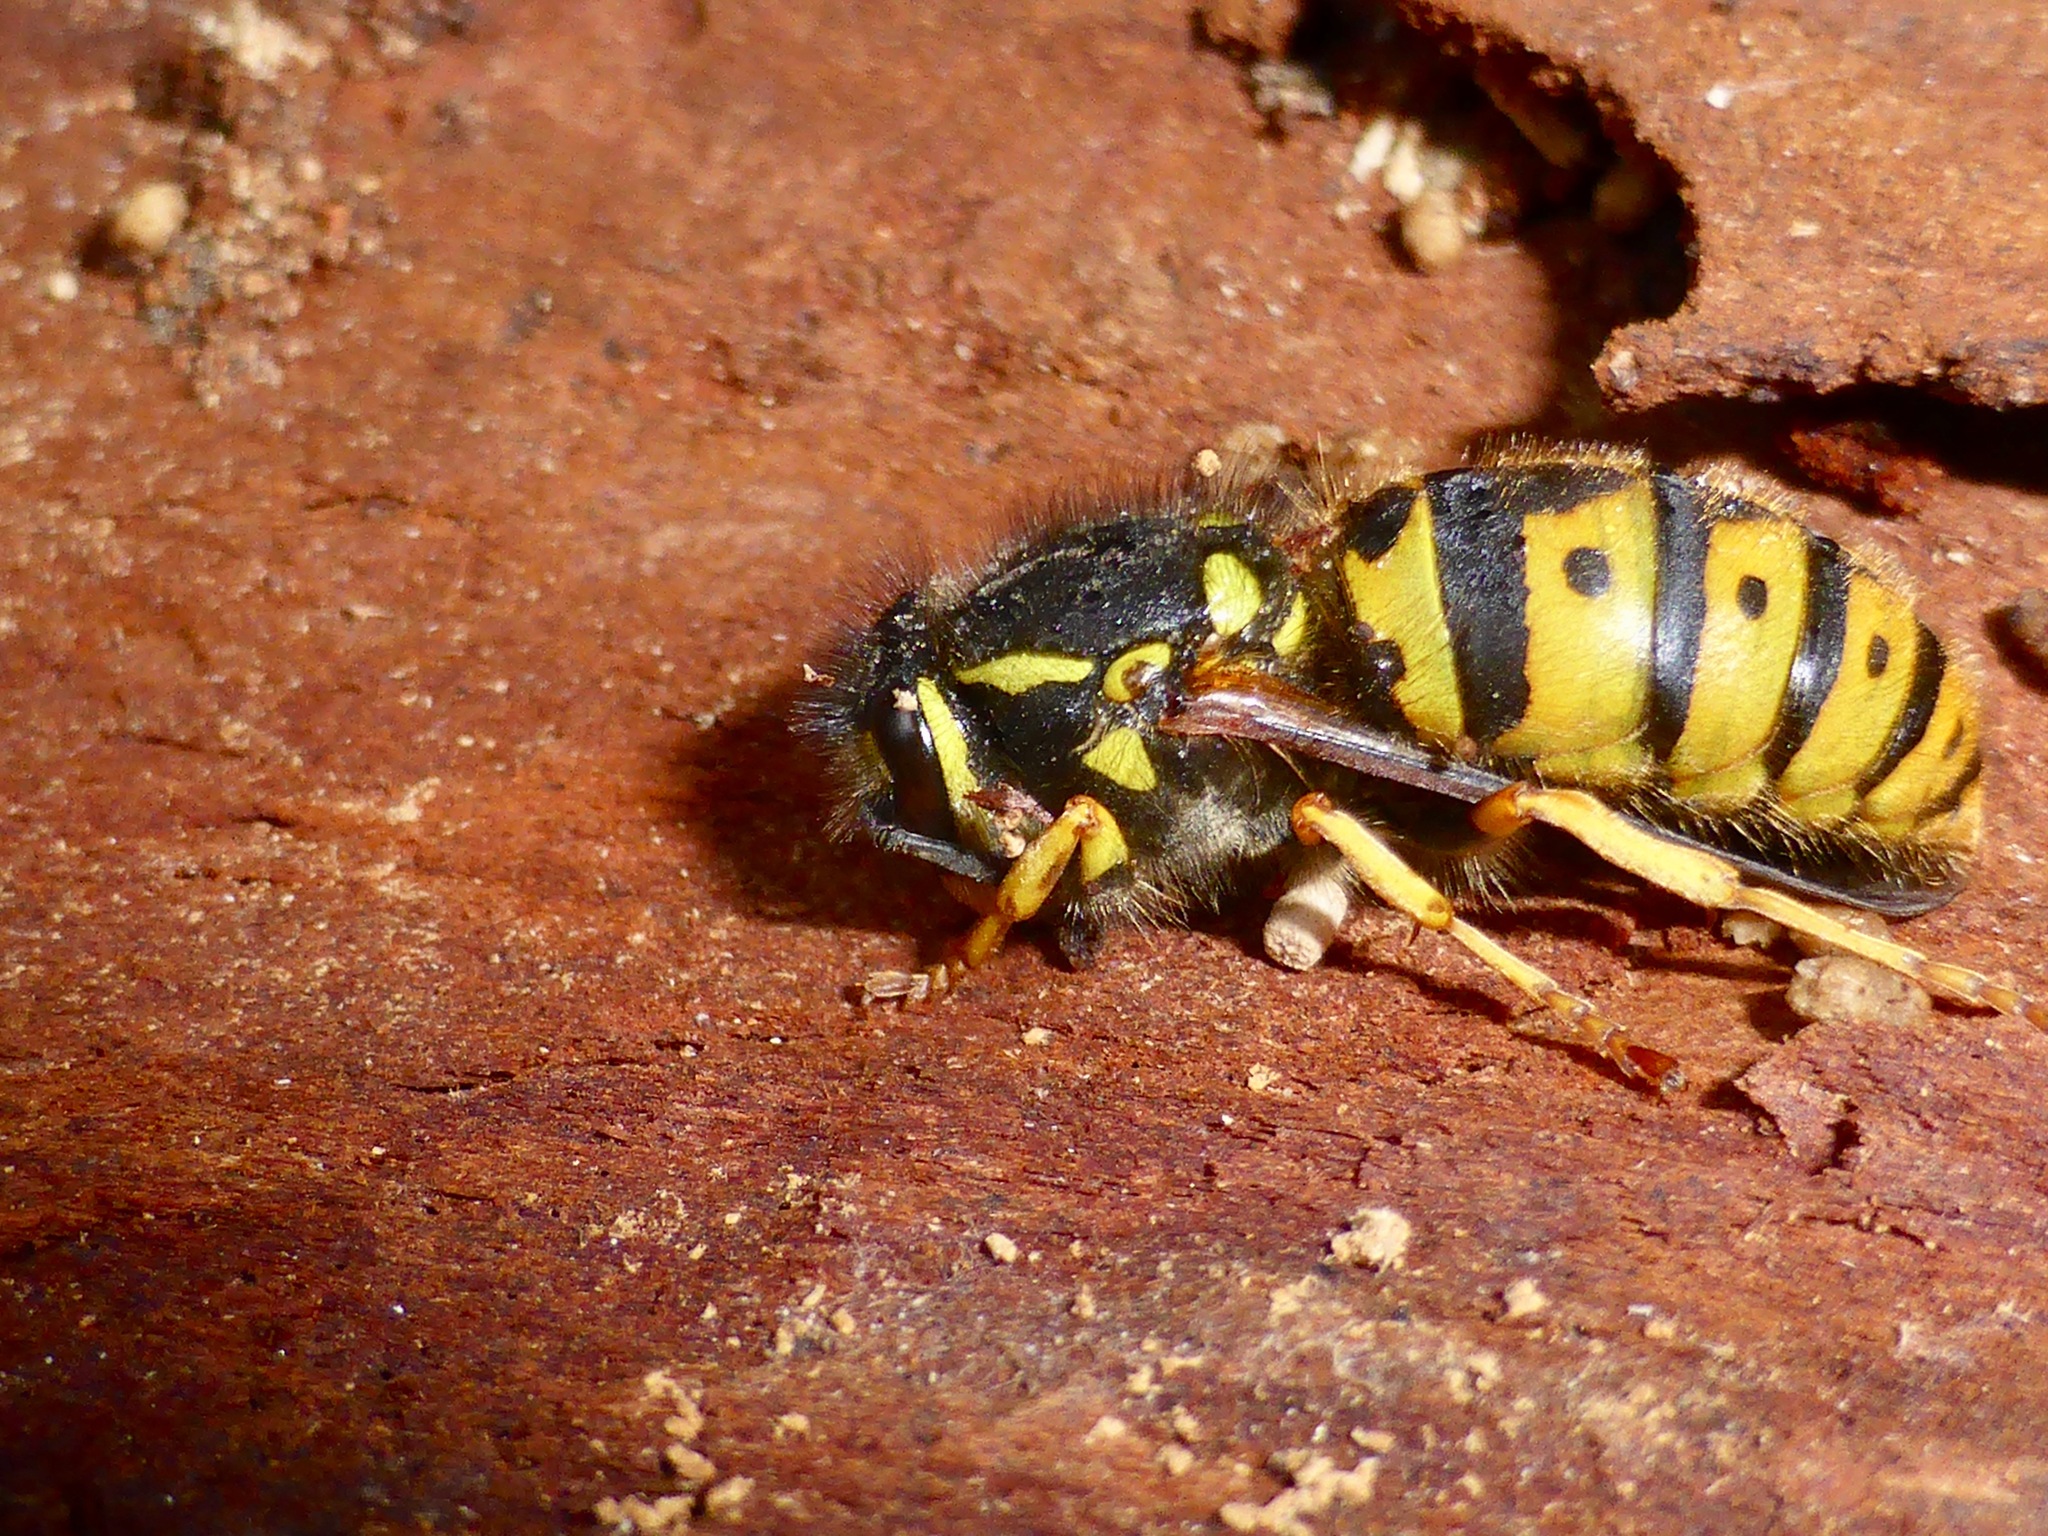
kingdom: Animalia
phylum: Arthropoda
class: Insecta
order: Hymenoptera
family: Vespidae
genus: Vespula
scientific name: Vespula germanica
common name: German wasp
